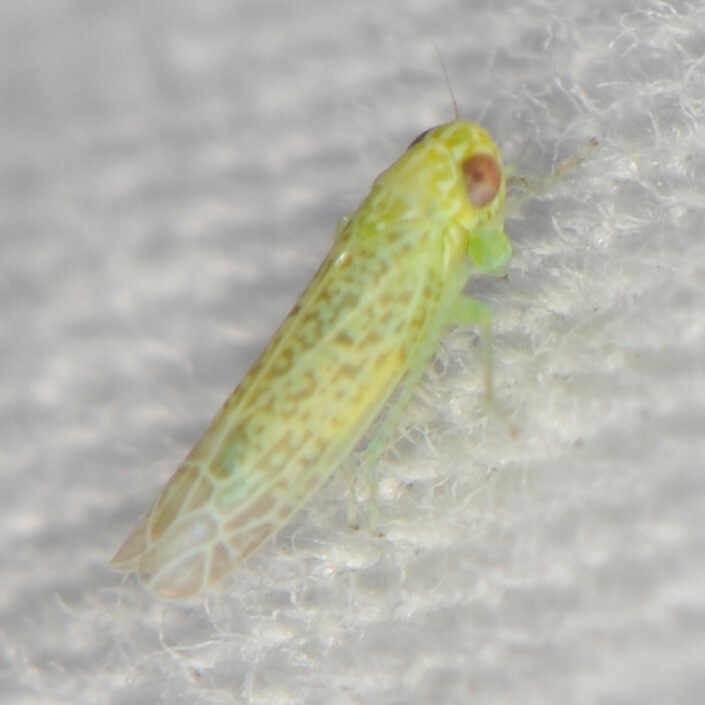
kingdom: Animalia
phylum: Arthropoda
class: Insecta
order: Hemiptera
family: Cicadellidae
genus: Hebata
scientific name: Hebata
